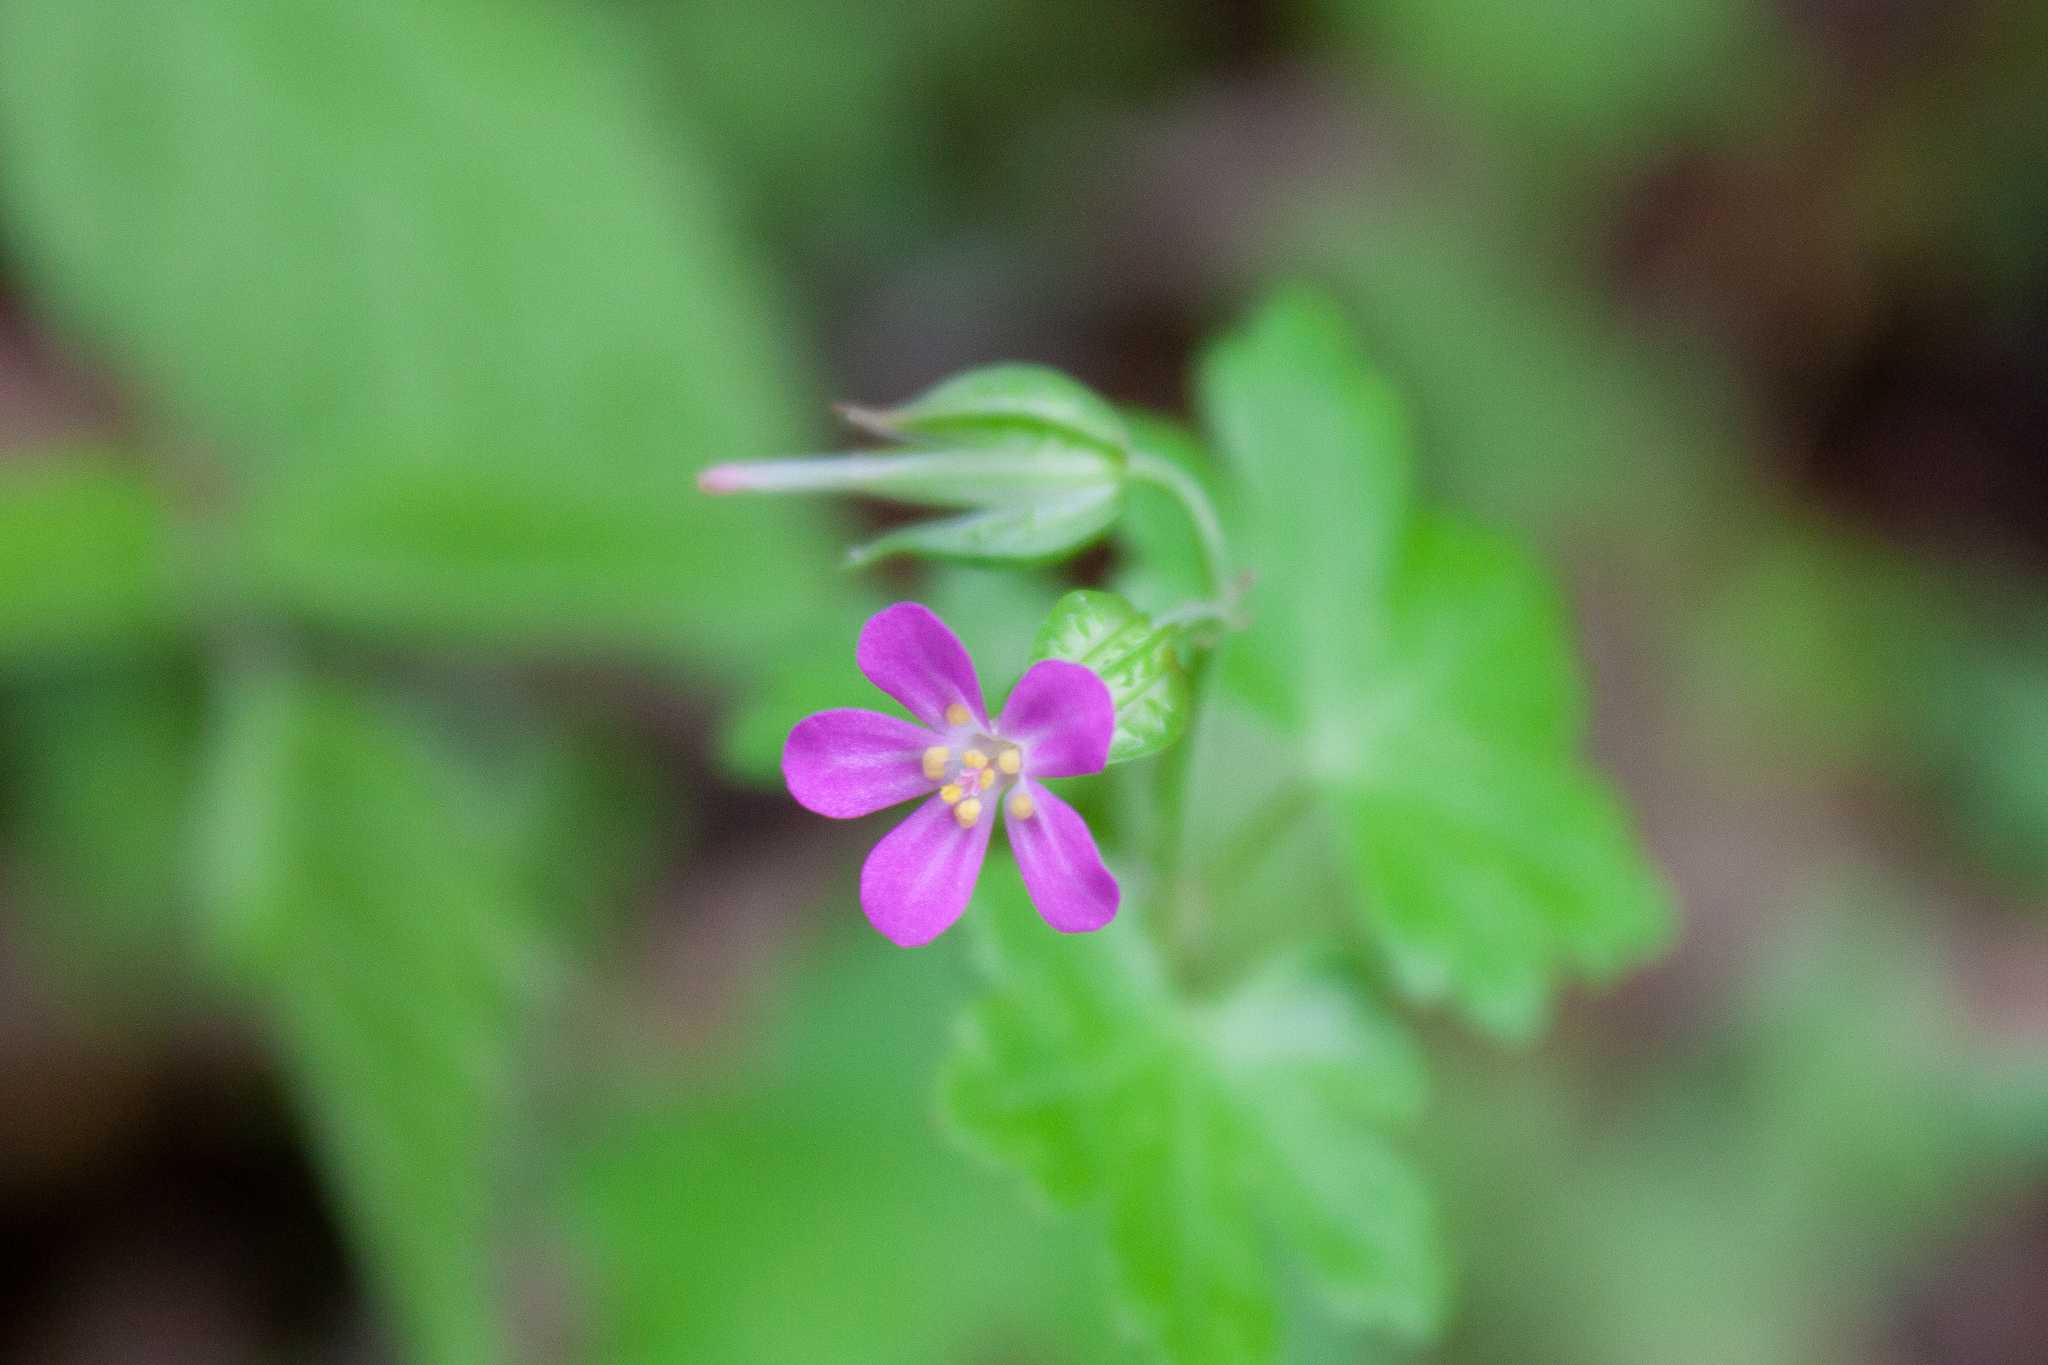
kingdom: Plantae
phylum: Tracheophyta
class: Magnoliopsida
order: Geraniales
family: Geraniaceae
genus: Geranium
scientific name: Geranium lucidum
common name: Shining crane's-bill
